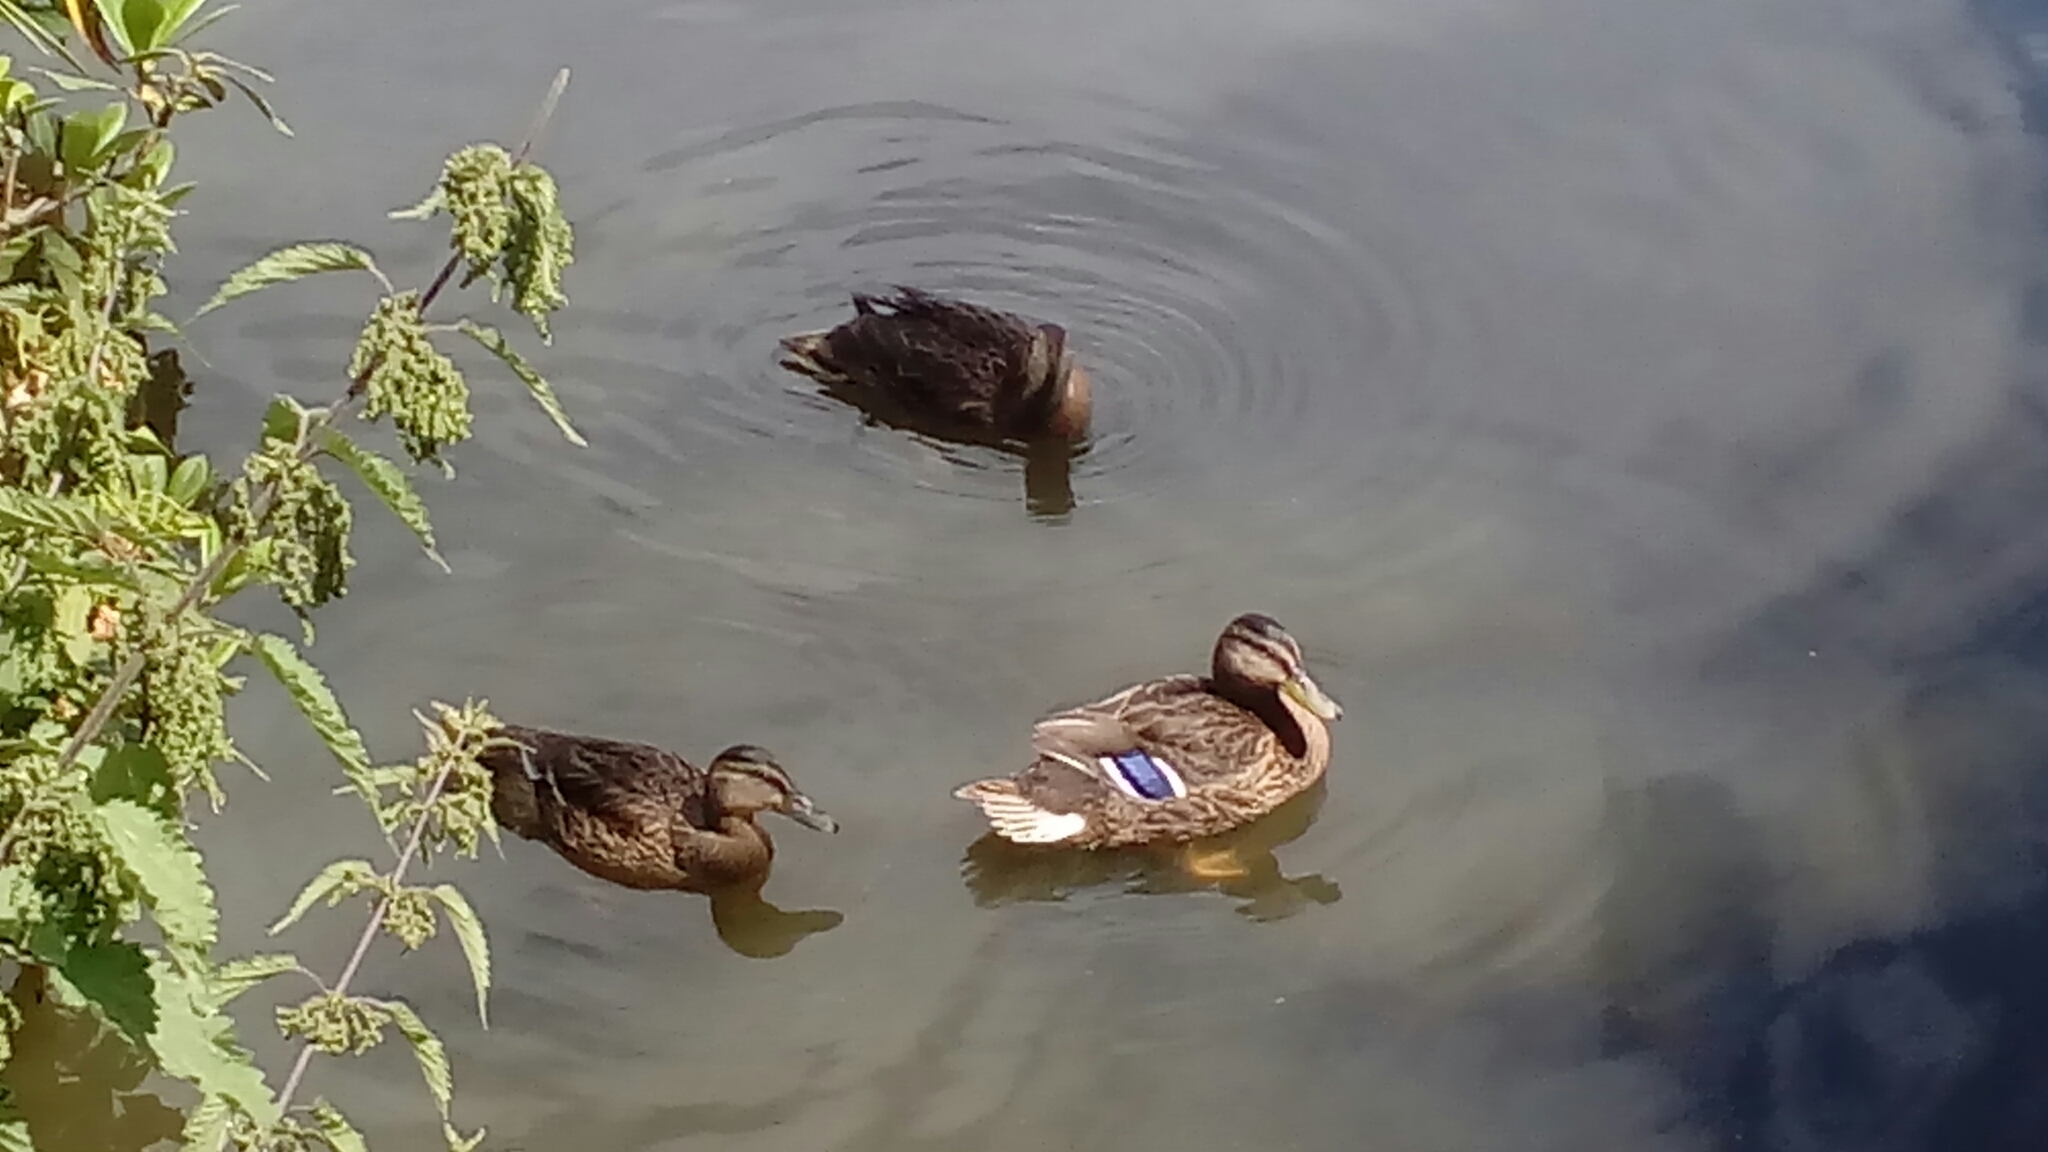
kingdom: Animalia
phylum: Chordata
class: Aves
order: Anseriformes
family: Anatidae
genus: Anas
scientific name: Anas platyrhynchos
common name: Mallard
